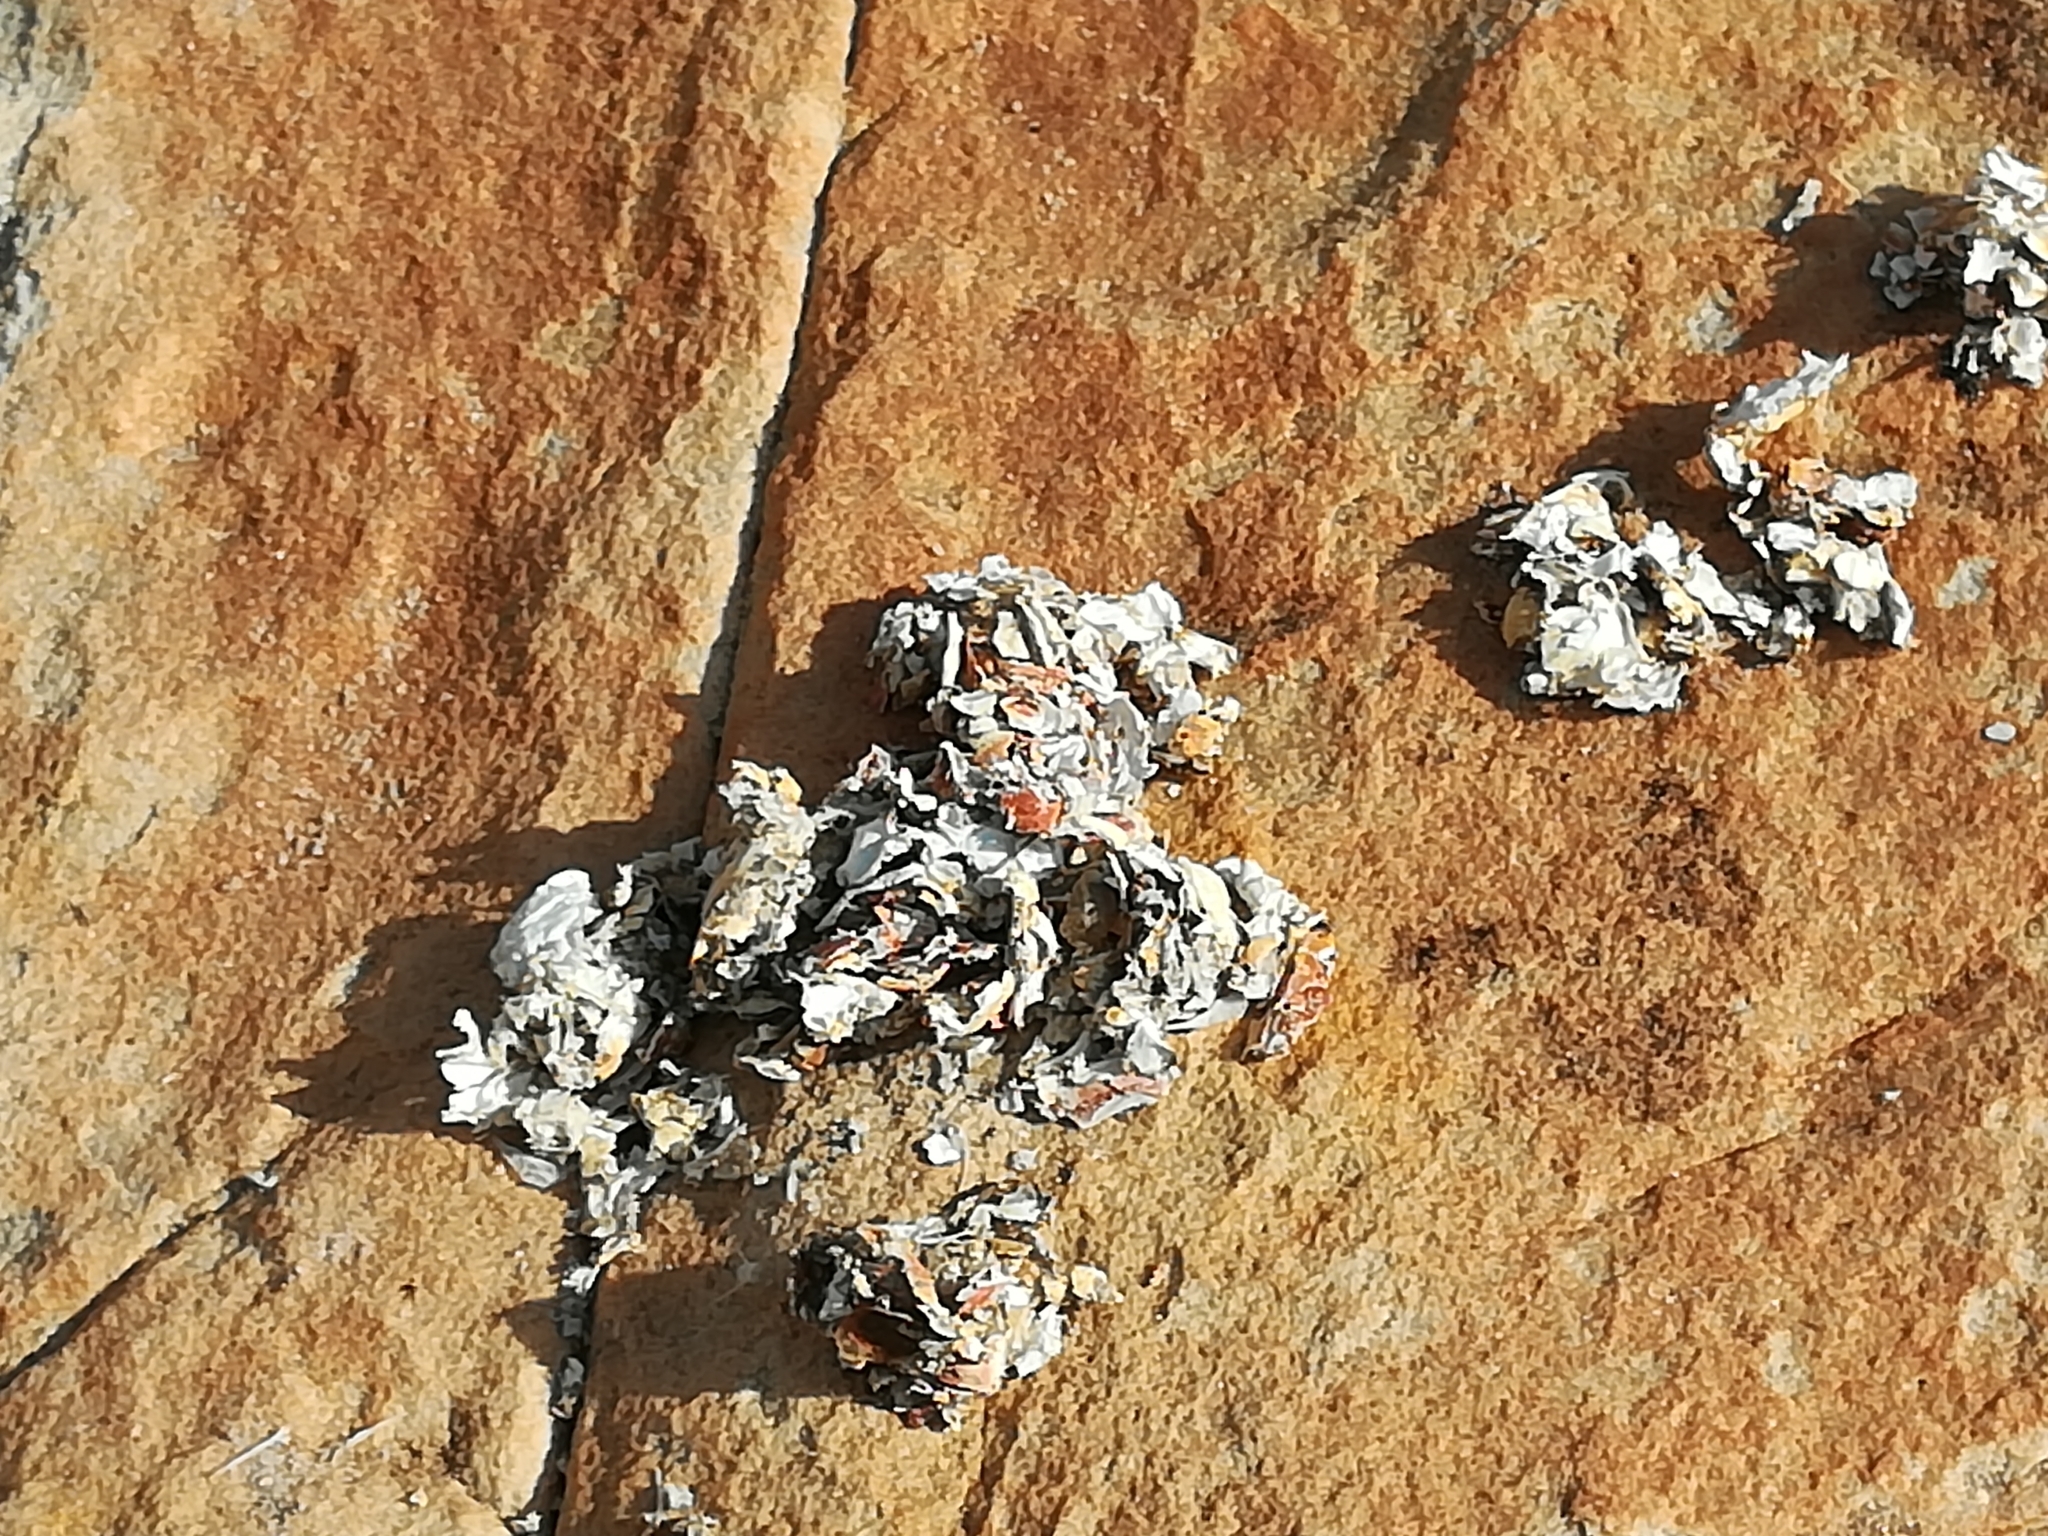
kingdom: Animalia
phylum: Chordata
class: Mammalia
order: Carnivora
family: Mustelidae
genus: Aonyx
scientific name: Aonyx capensis
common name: African clawless otter
